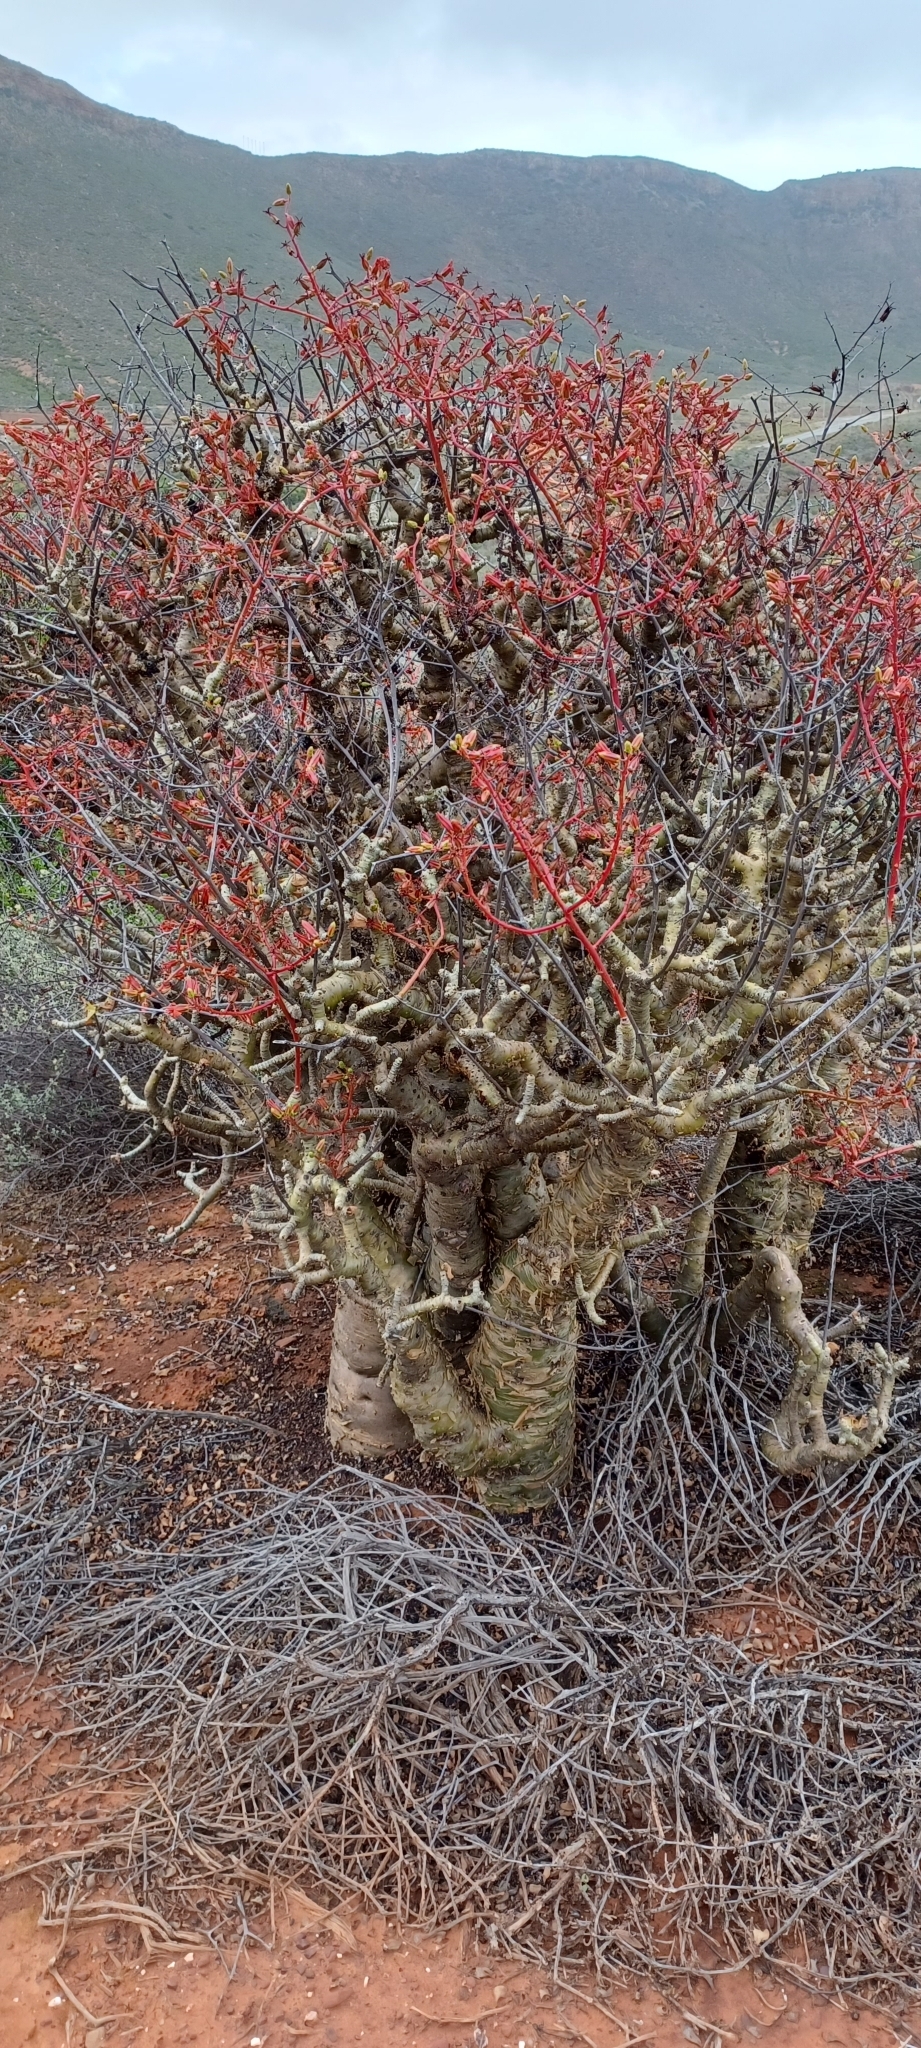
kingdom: Plantae
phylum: Tracheophyta
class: Magnoliopsida
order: Saxifragales
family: Crassulaceae
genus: Tylecodon
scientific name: Tylecodon paniculatus
